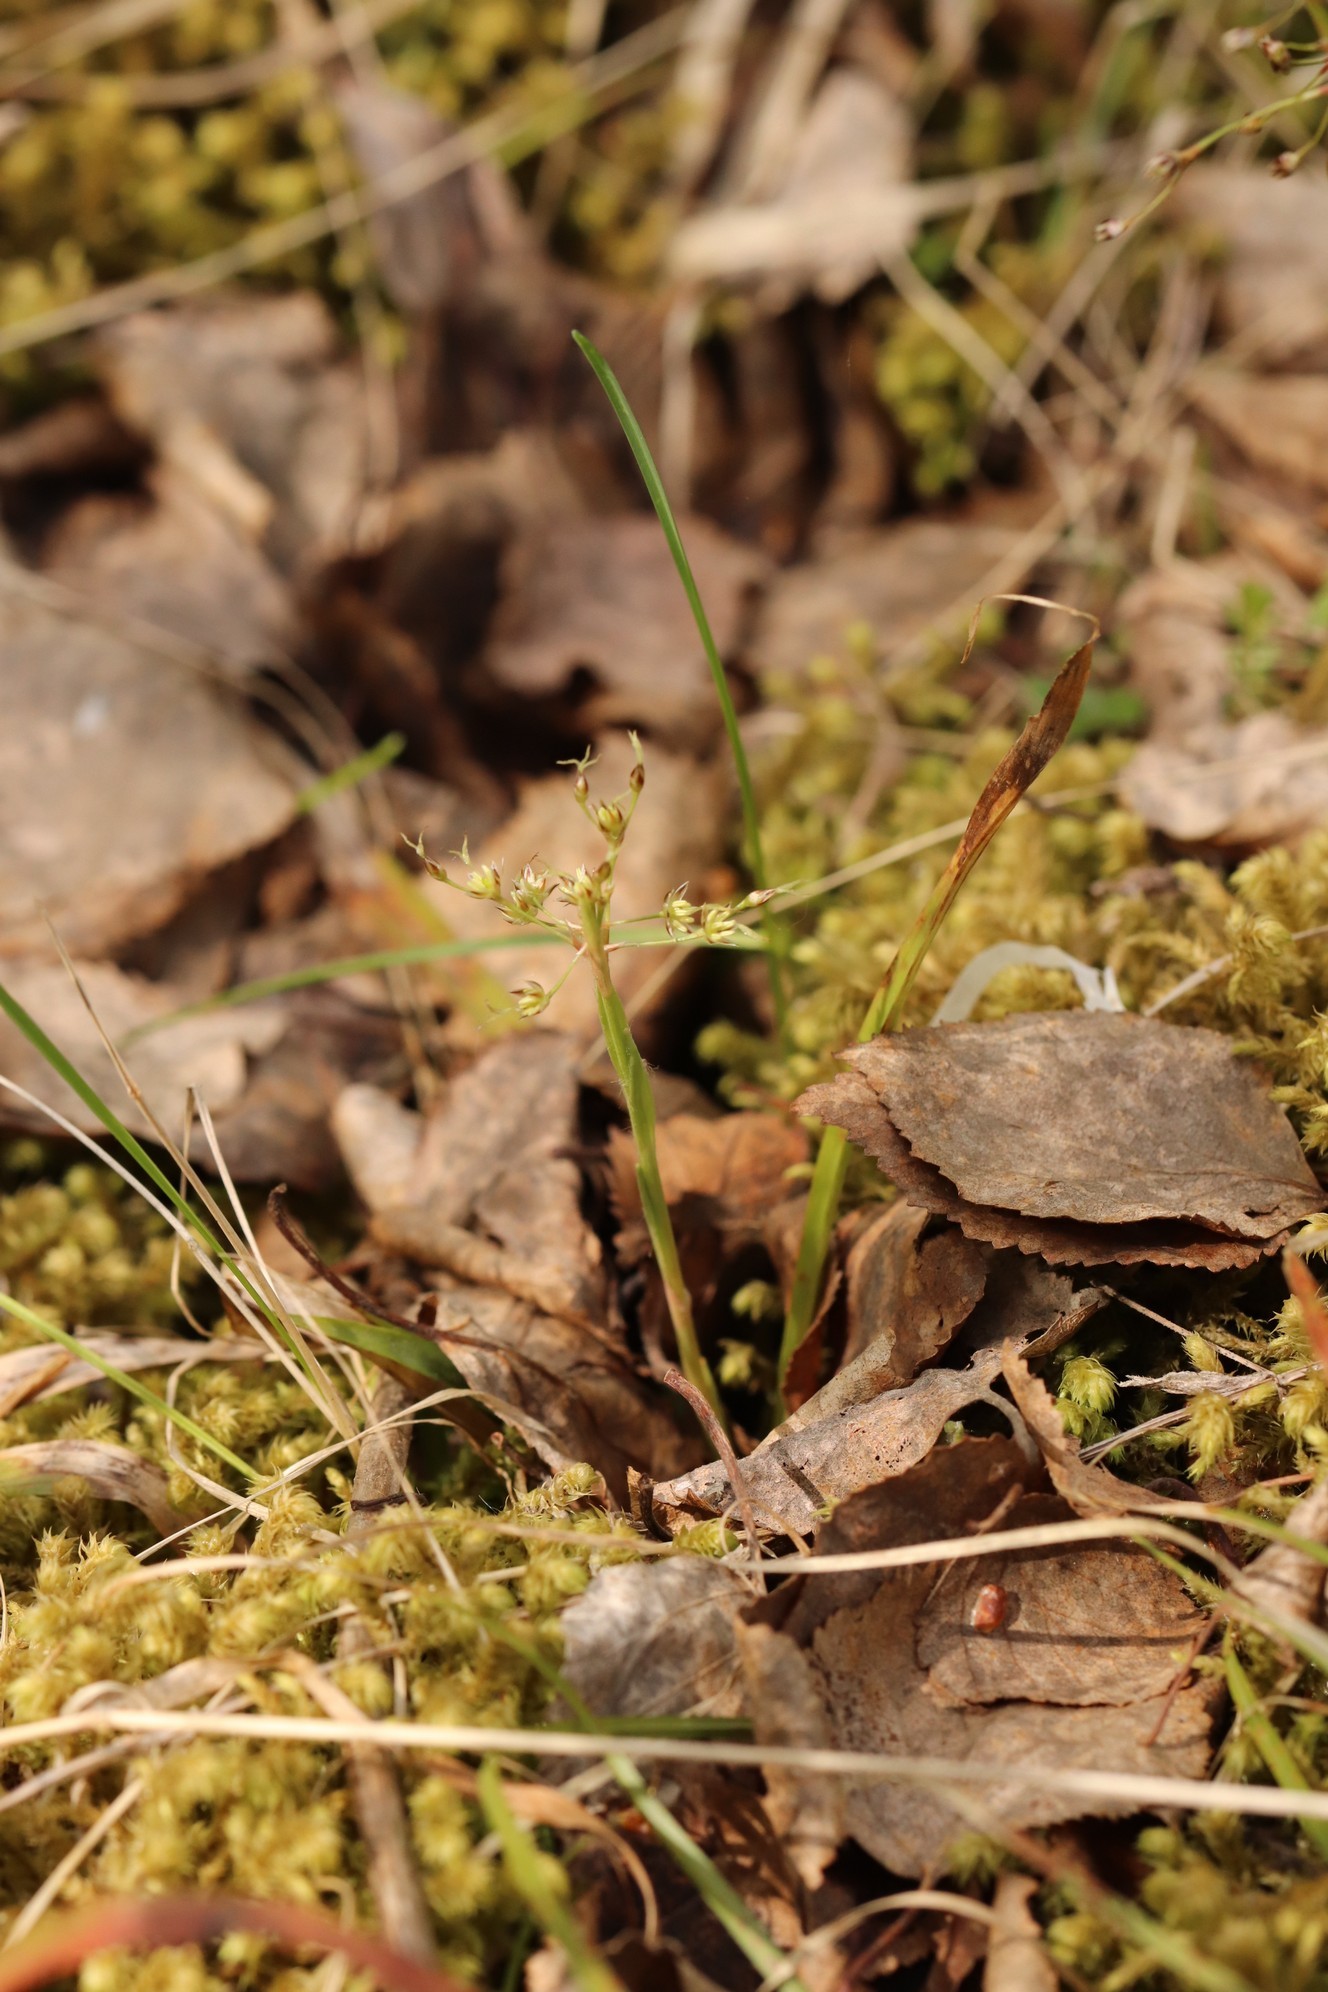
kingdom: Plantae
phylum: Tracheophyta
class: Liliopsida
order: Poales
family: Juncaceae
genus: Luzula
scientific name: Luzula pilosa
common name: Hairy wood-rush
